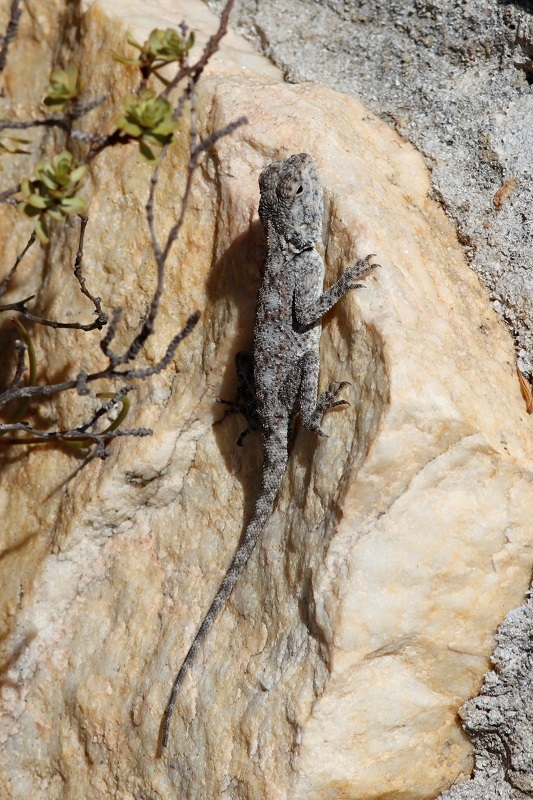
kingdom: Animalia
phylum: Chordata
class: Squamata
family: Agamidae
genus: Agama
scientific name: Agama atra
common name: Southern african rock agama
